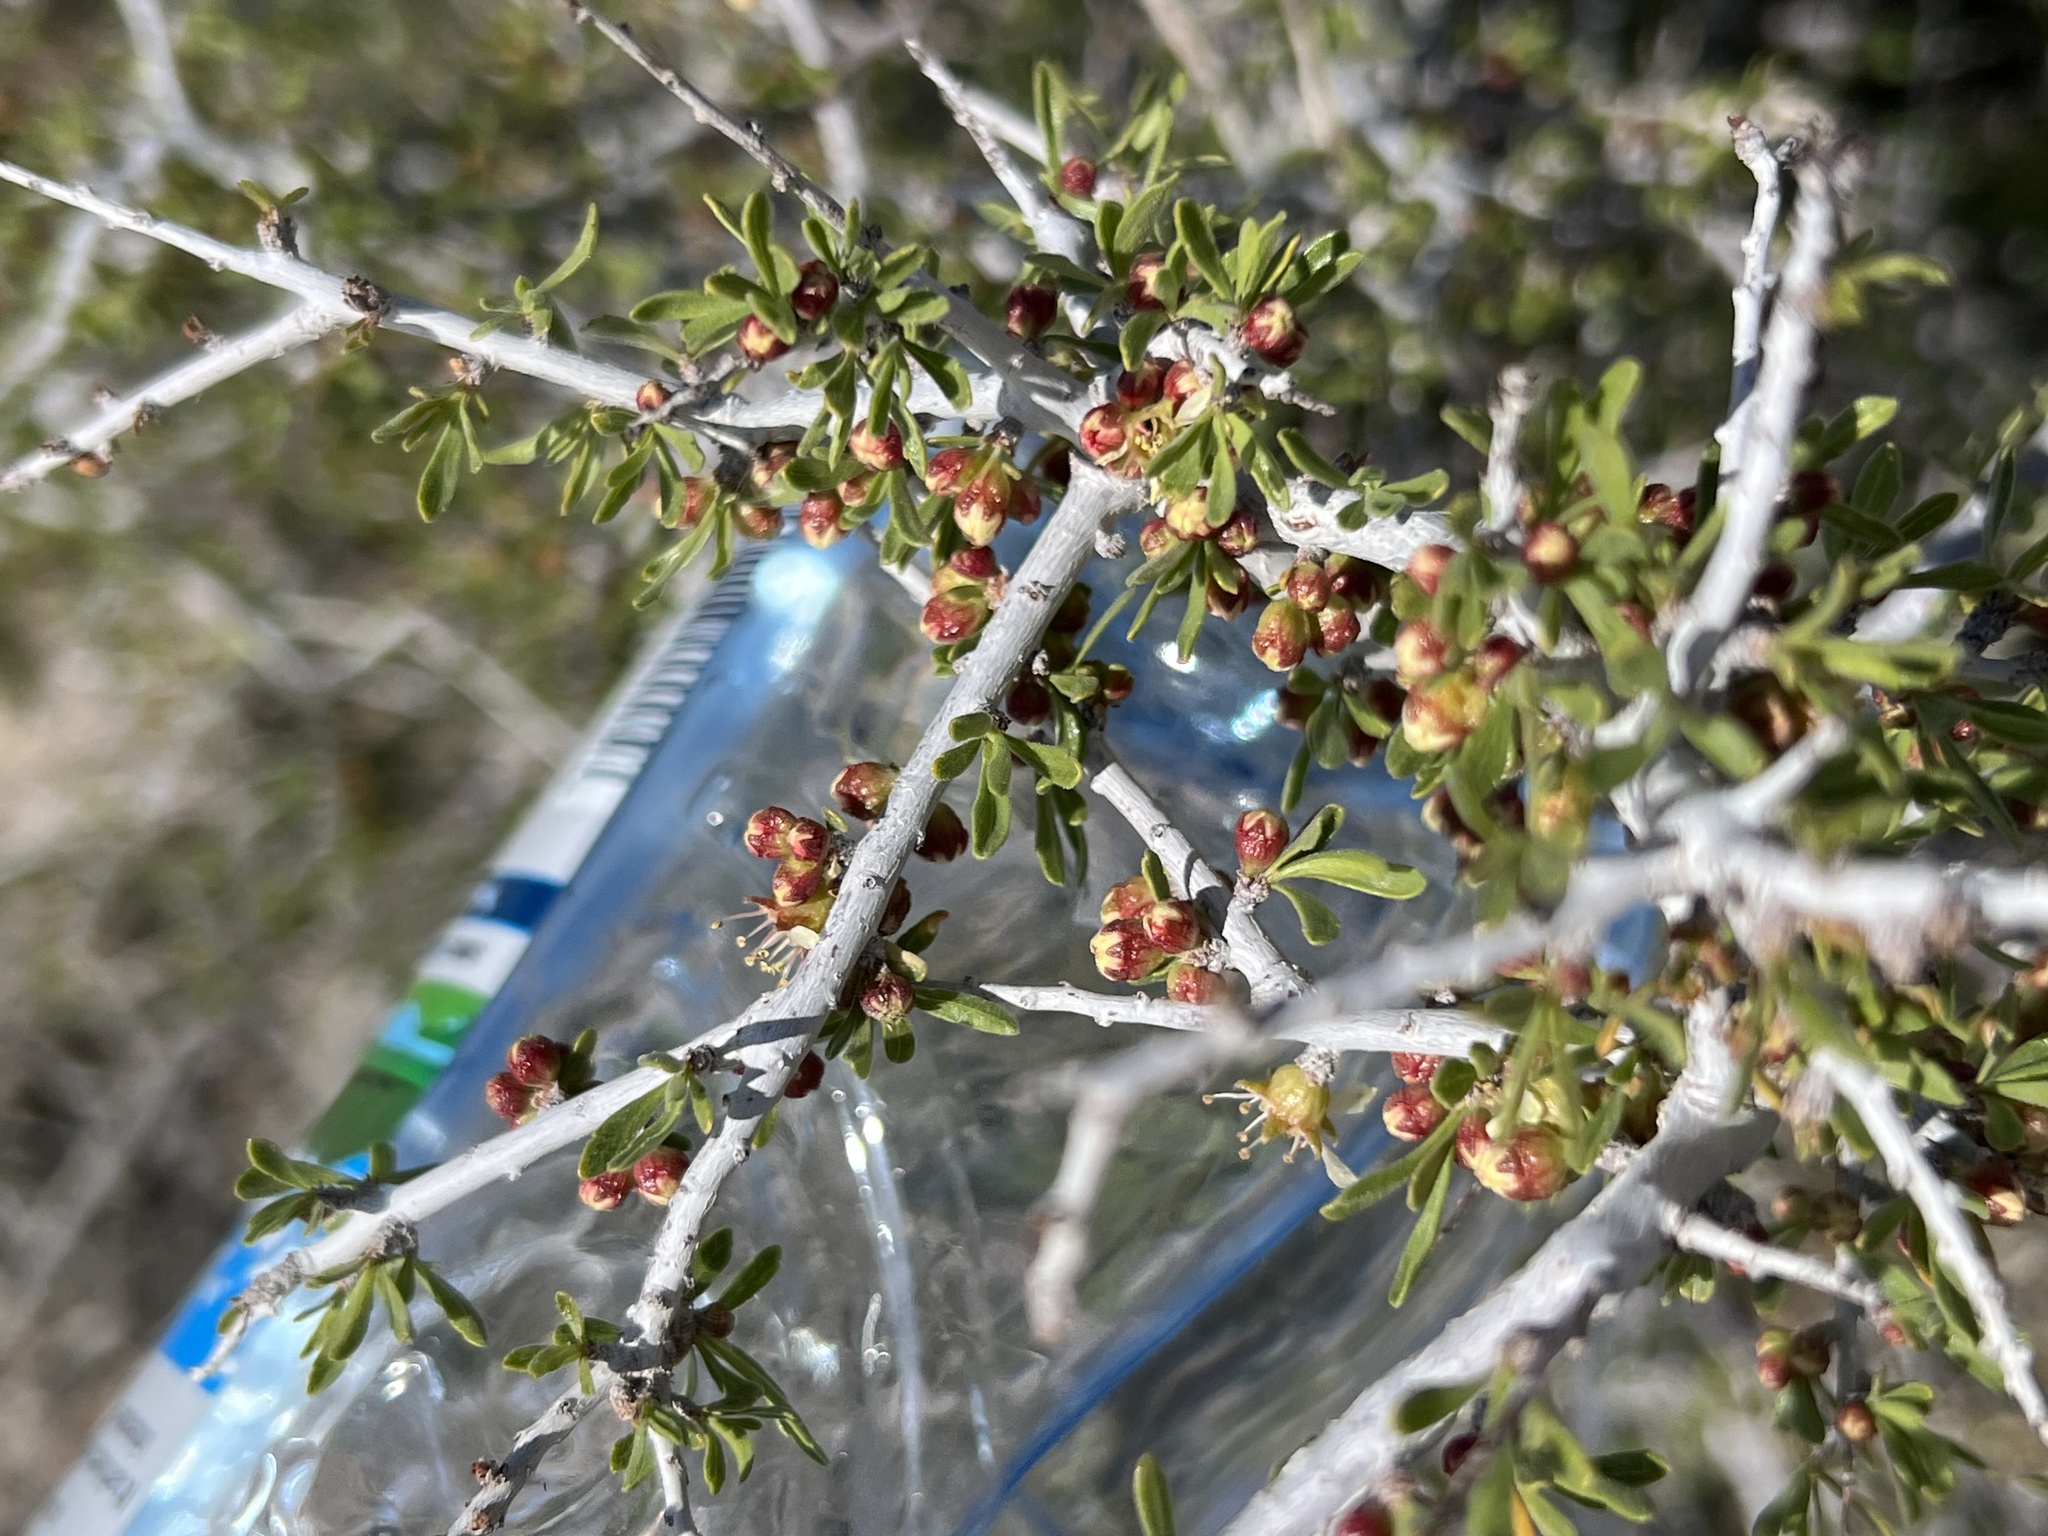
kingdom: Plantae
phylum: Tracheophyta
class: Magnoliopsida
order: Rosales
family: Rosaceae
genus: Prunus
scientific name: Prunus fasciculata
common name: Desert almond
